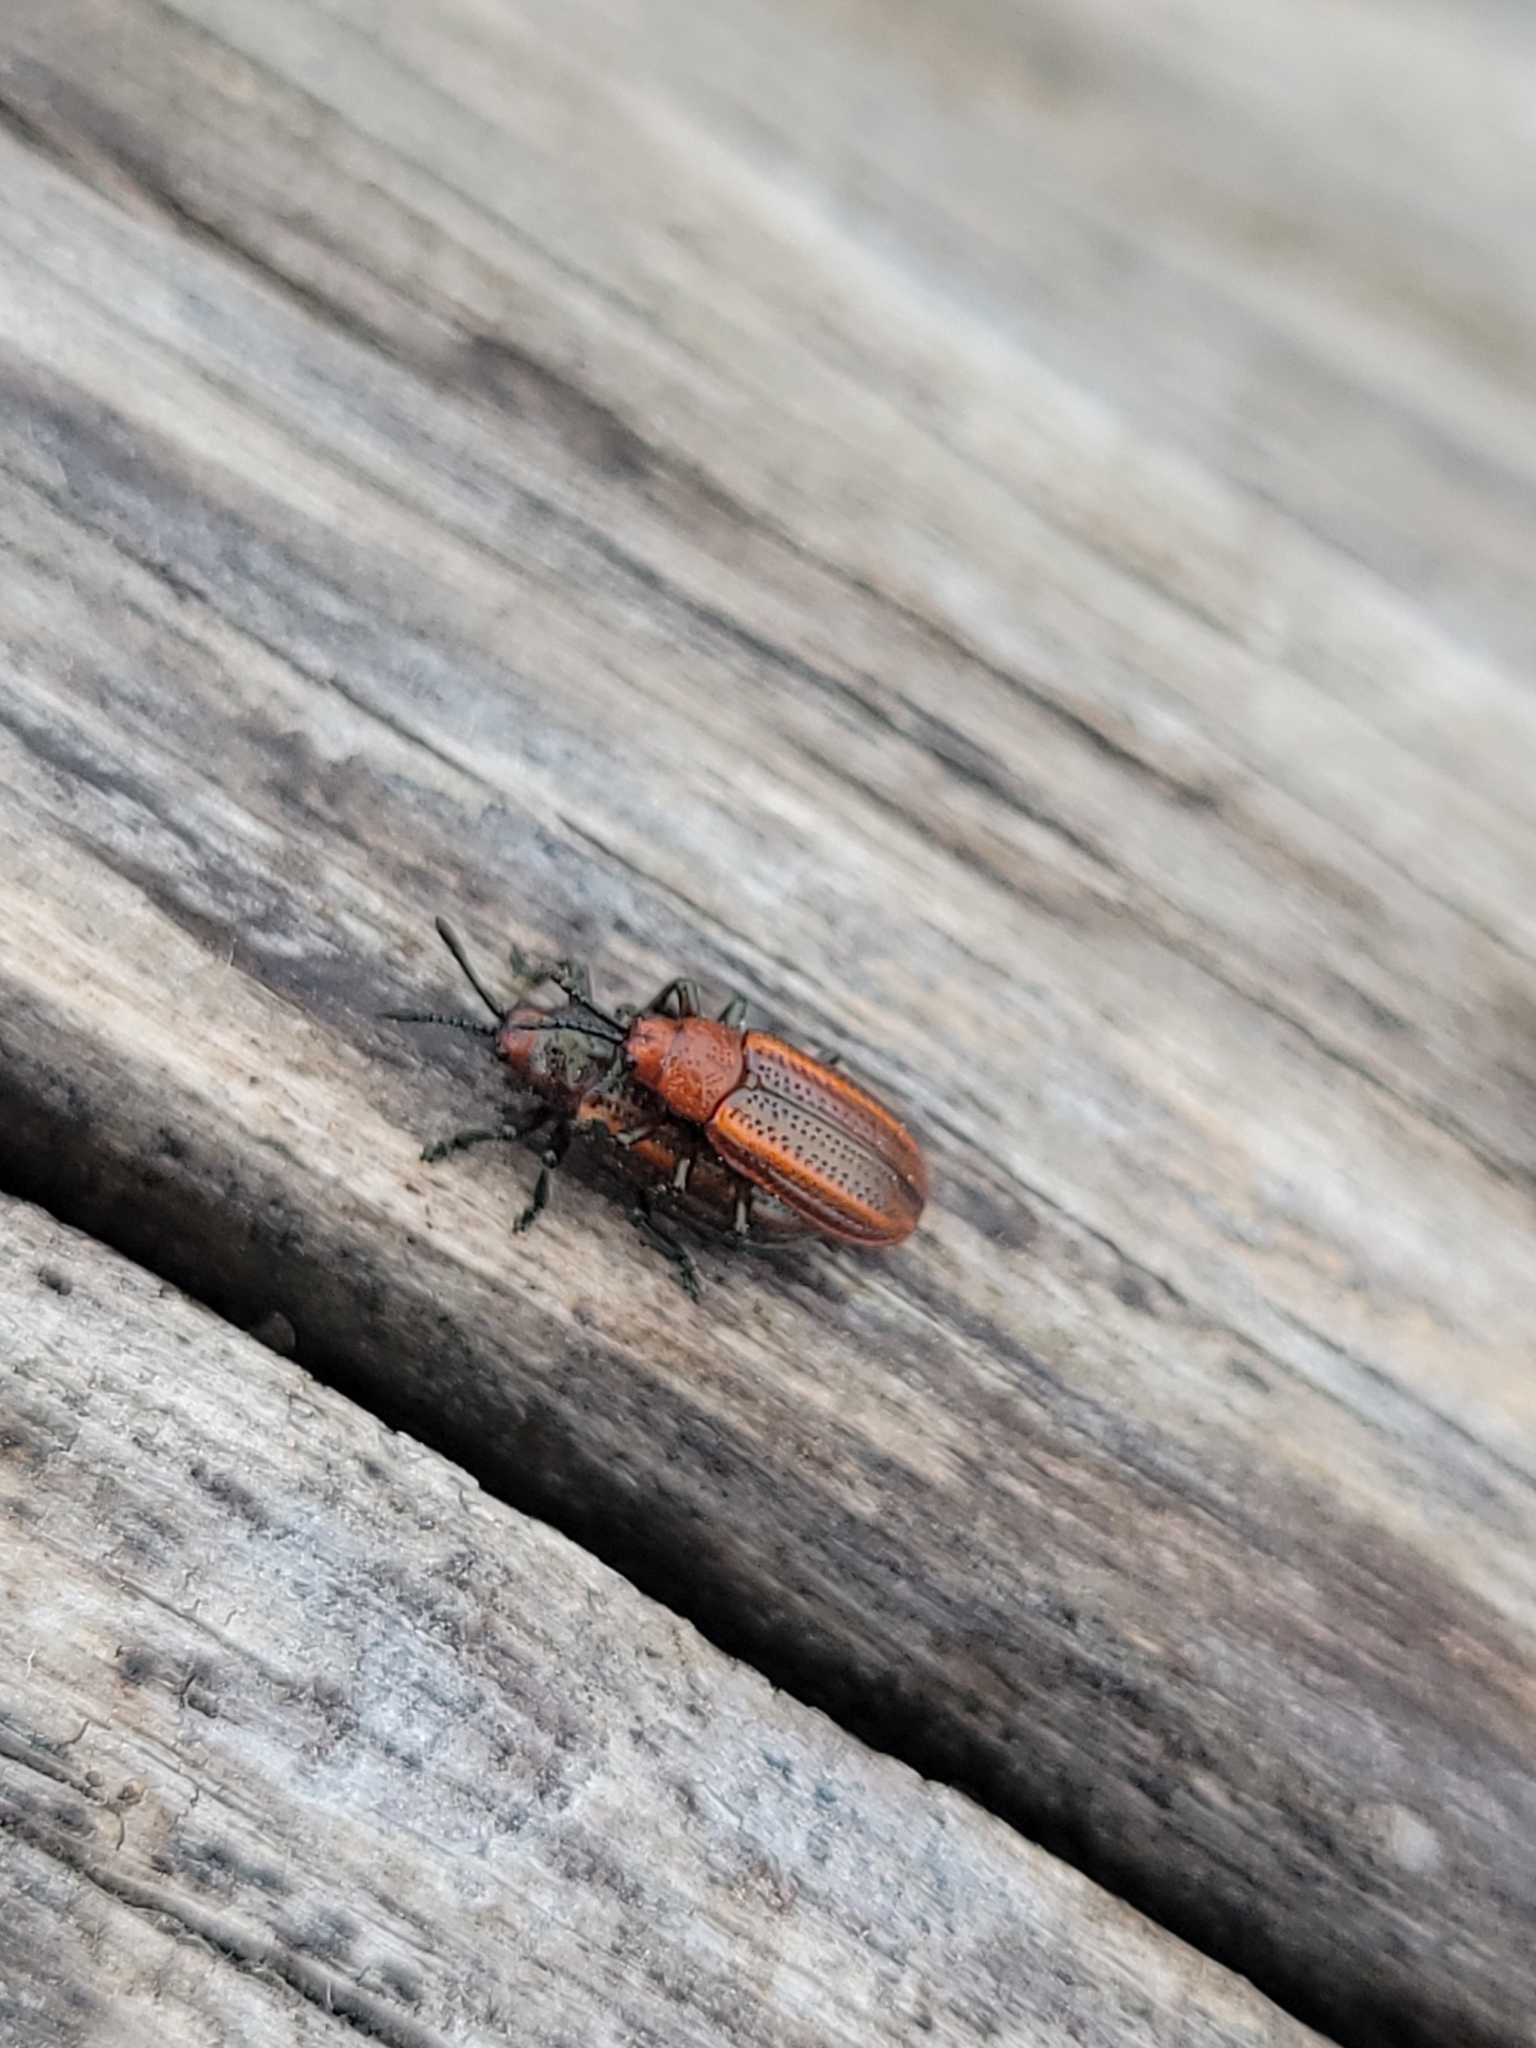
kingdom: Animalia
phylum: Arthropoda
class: Insecta
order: Coleoptera
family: Chrysomelidae
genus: Microrhopala
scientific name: Microrhopala vittata
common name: Goldenrod leaf miner beetle
